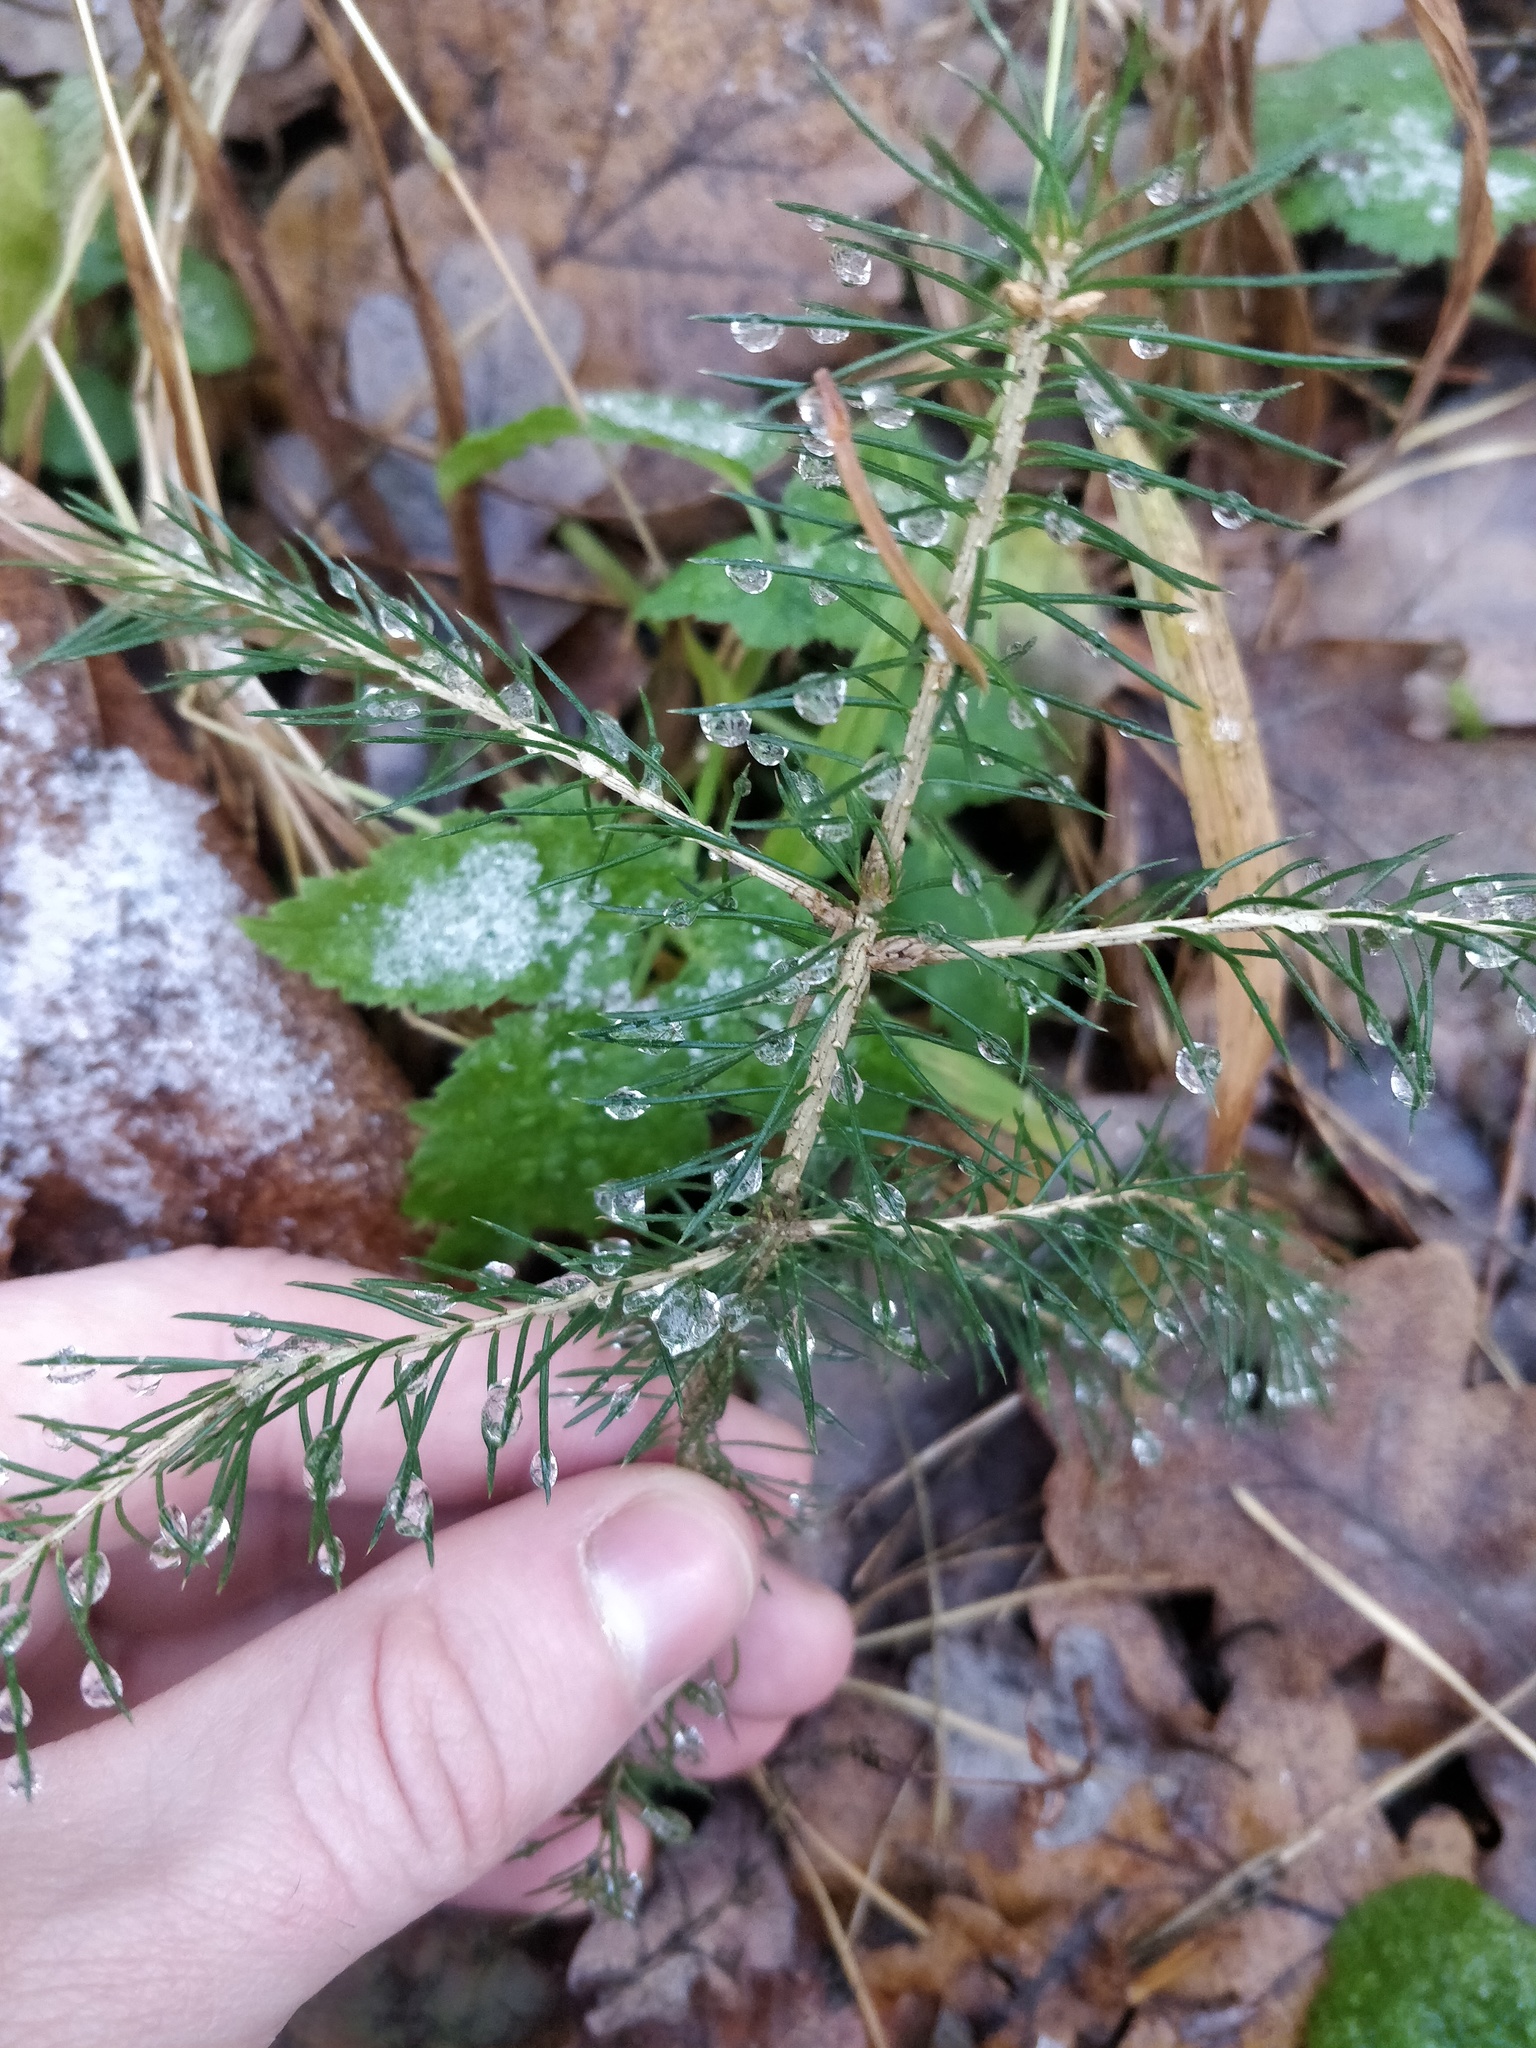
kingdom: Plantae
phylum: Tracheophyta
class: Pinopsida
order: Pinales
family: Pinaceae
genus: Picea
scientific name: Picea abies
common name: Norway spruce
